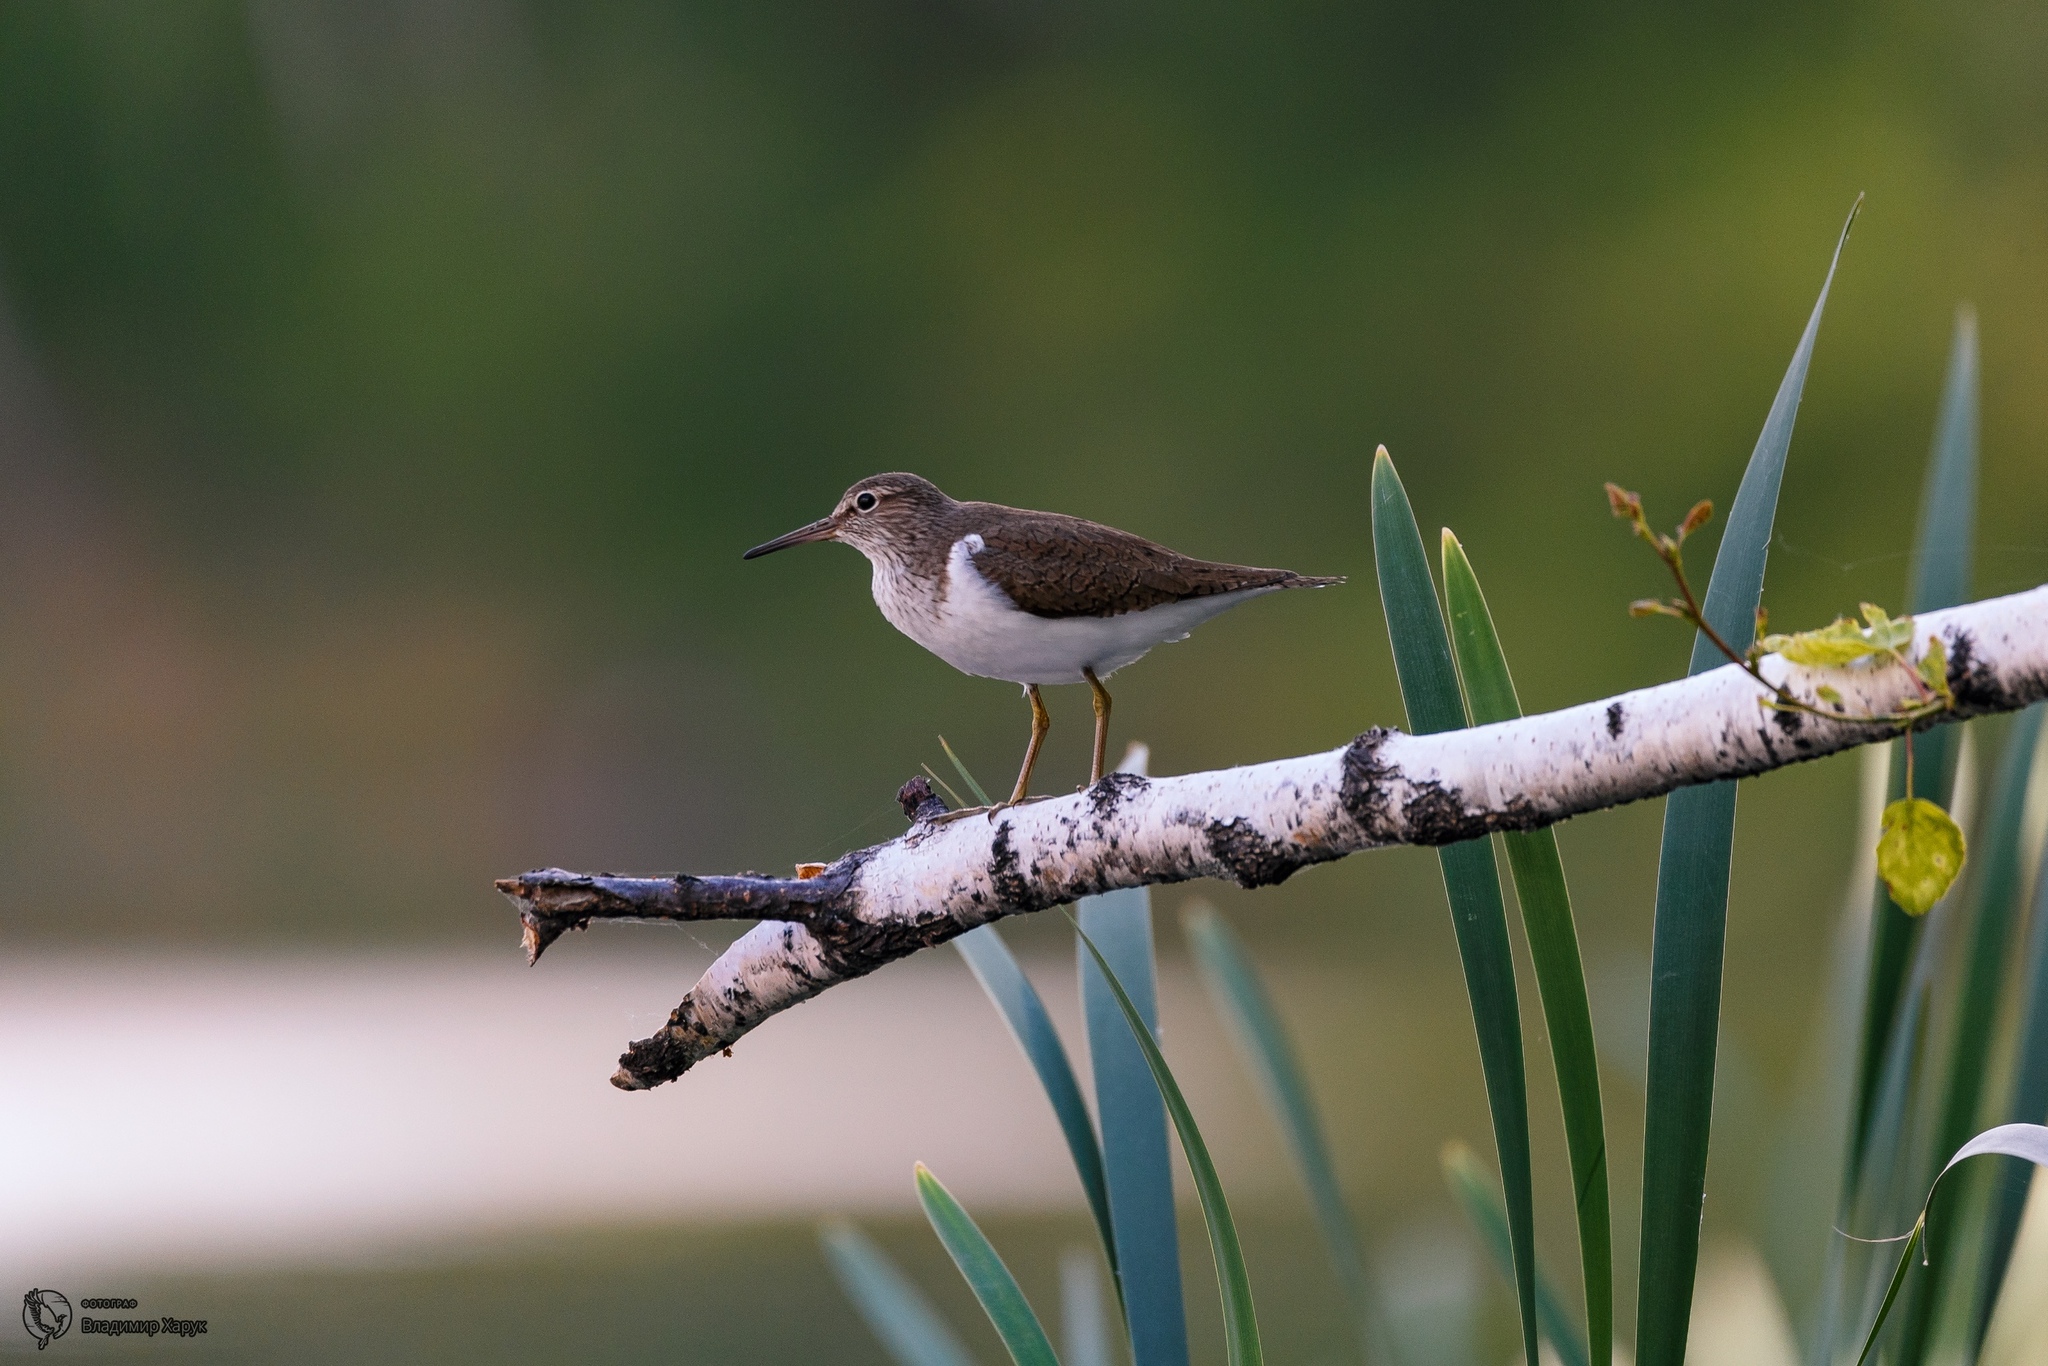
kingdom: Animalia
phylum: Chordata
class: Aves
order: Charadriiformes
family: Scolopacidae
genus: Actitis
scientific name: Actitis hypoleucos
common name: Common sandpiper
